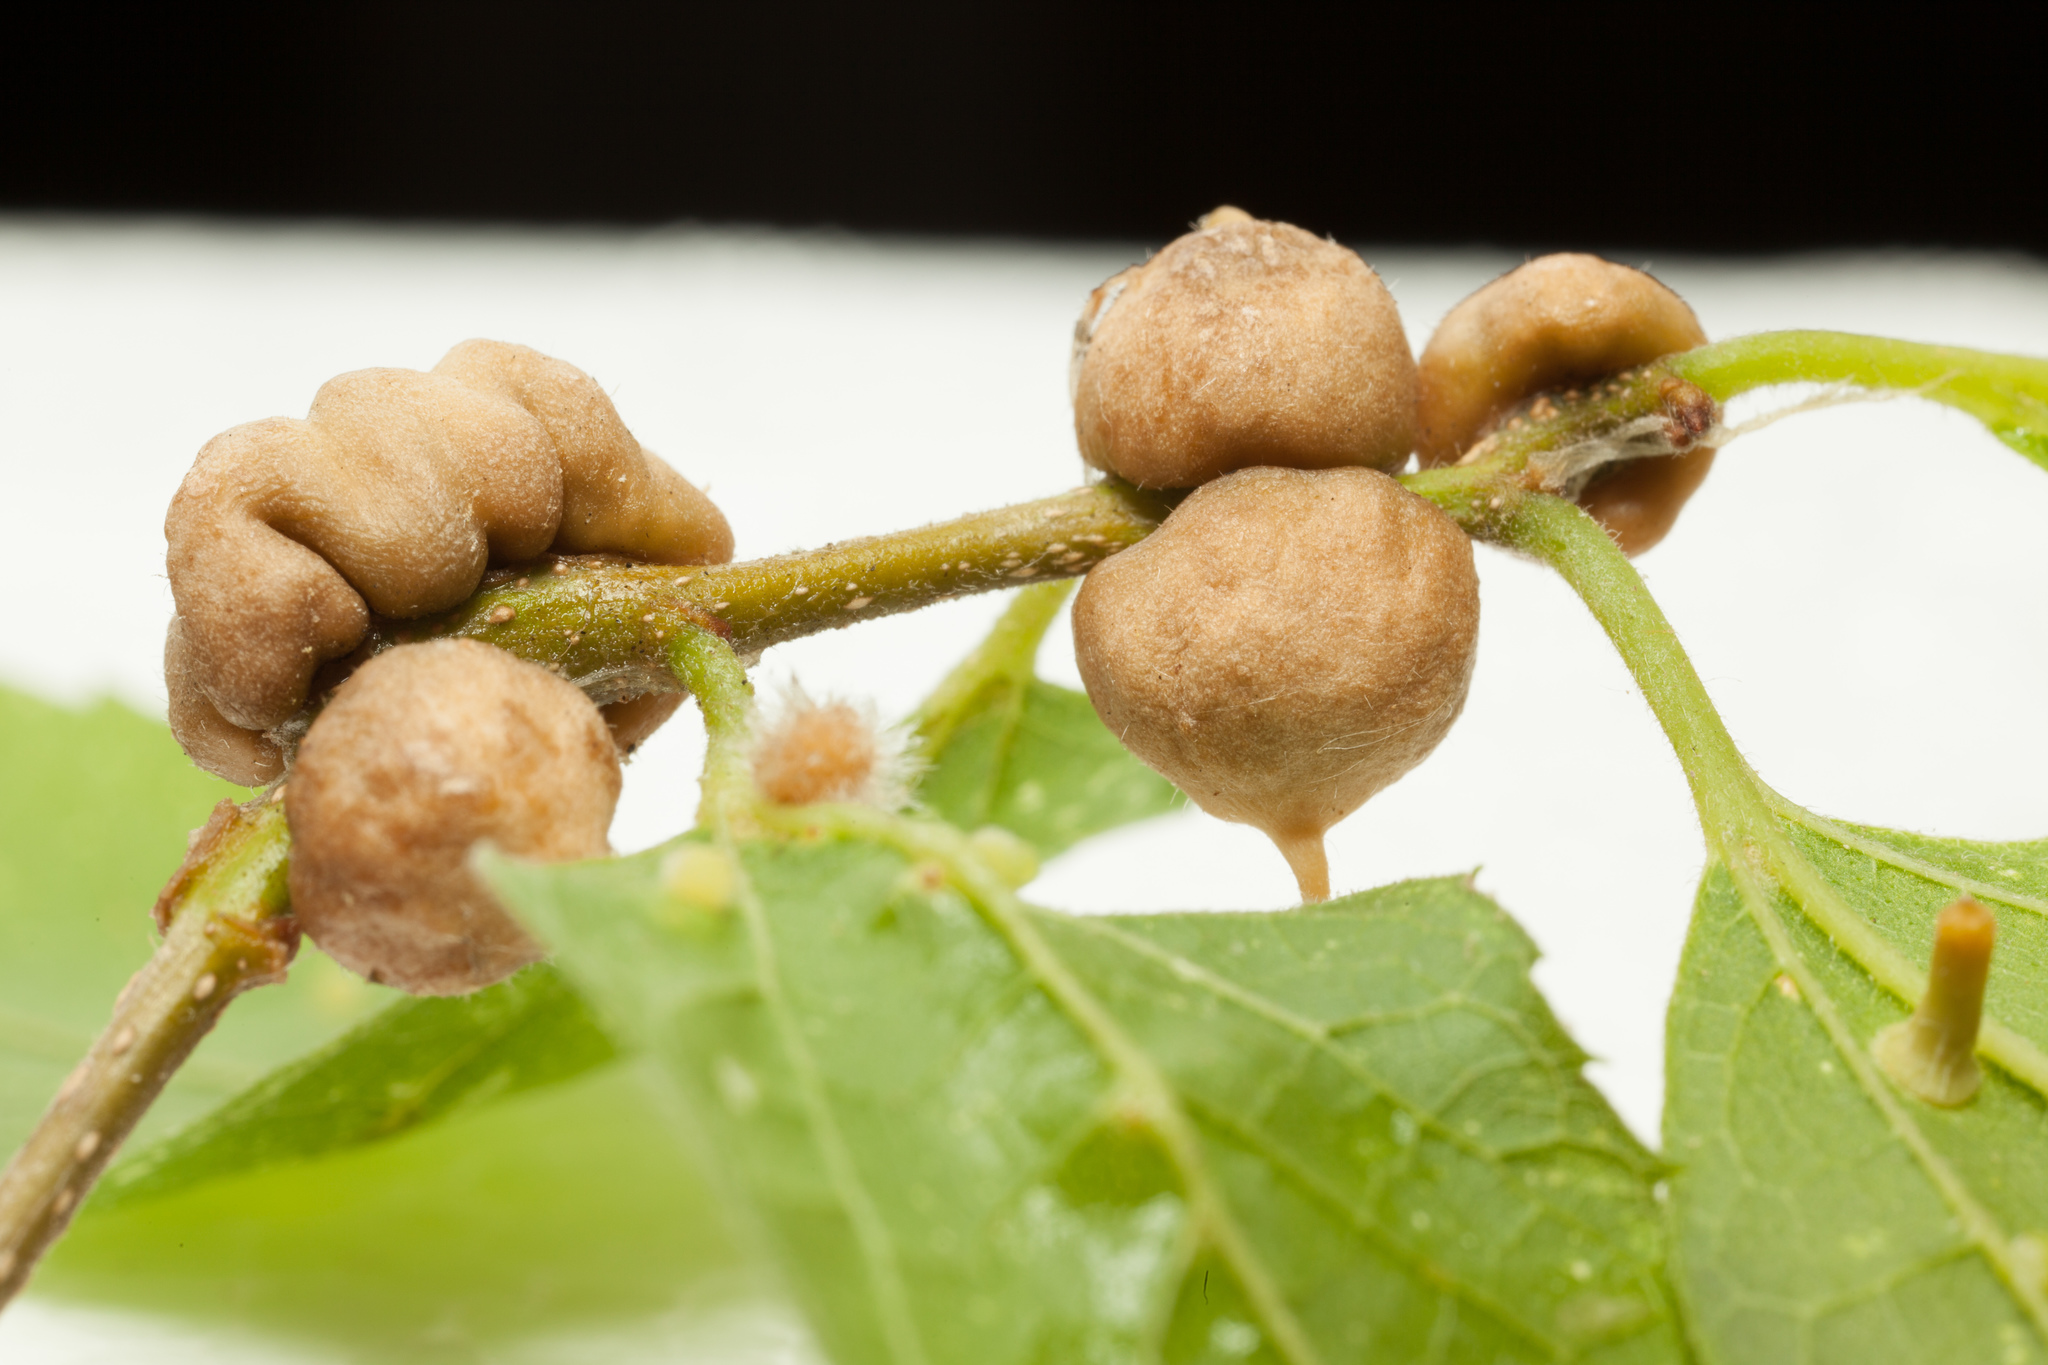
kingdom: Animalia
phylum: Arthropoda
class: Insecta
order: Diptera
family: Cecidomyiidae
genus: Celticecis
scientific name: Celticecis connata
